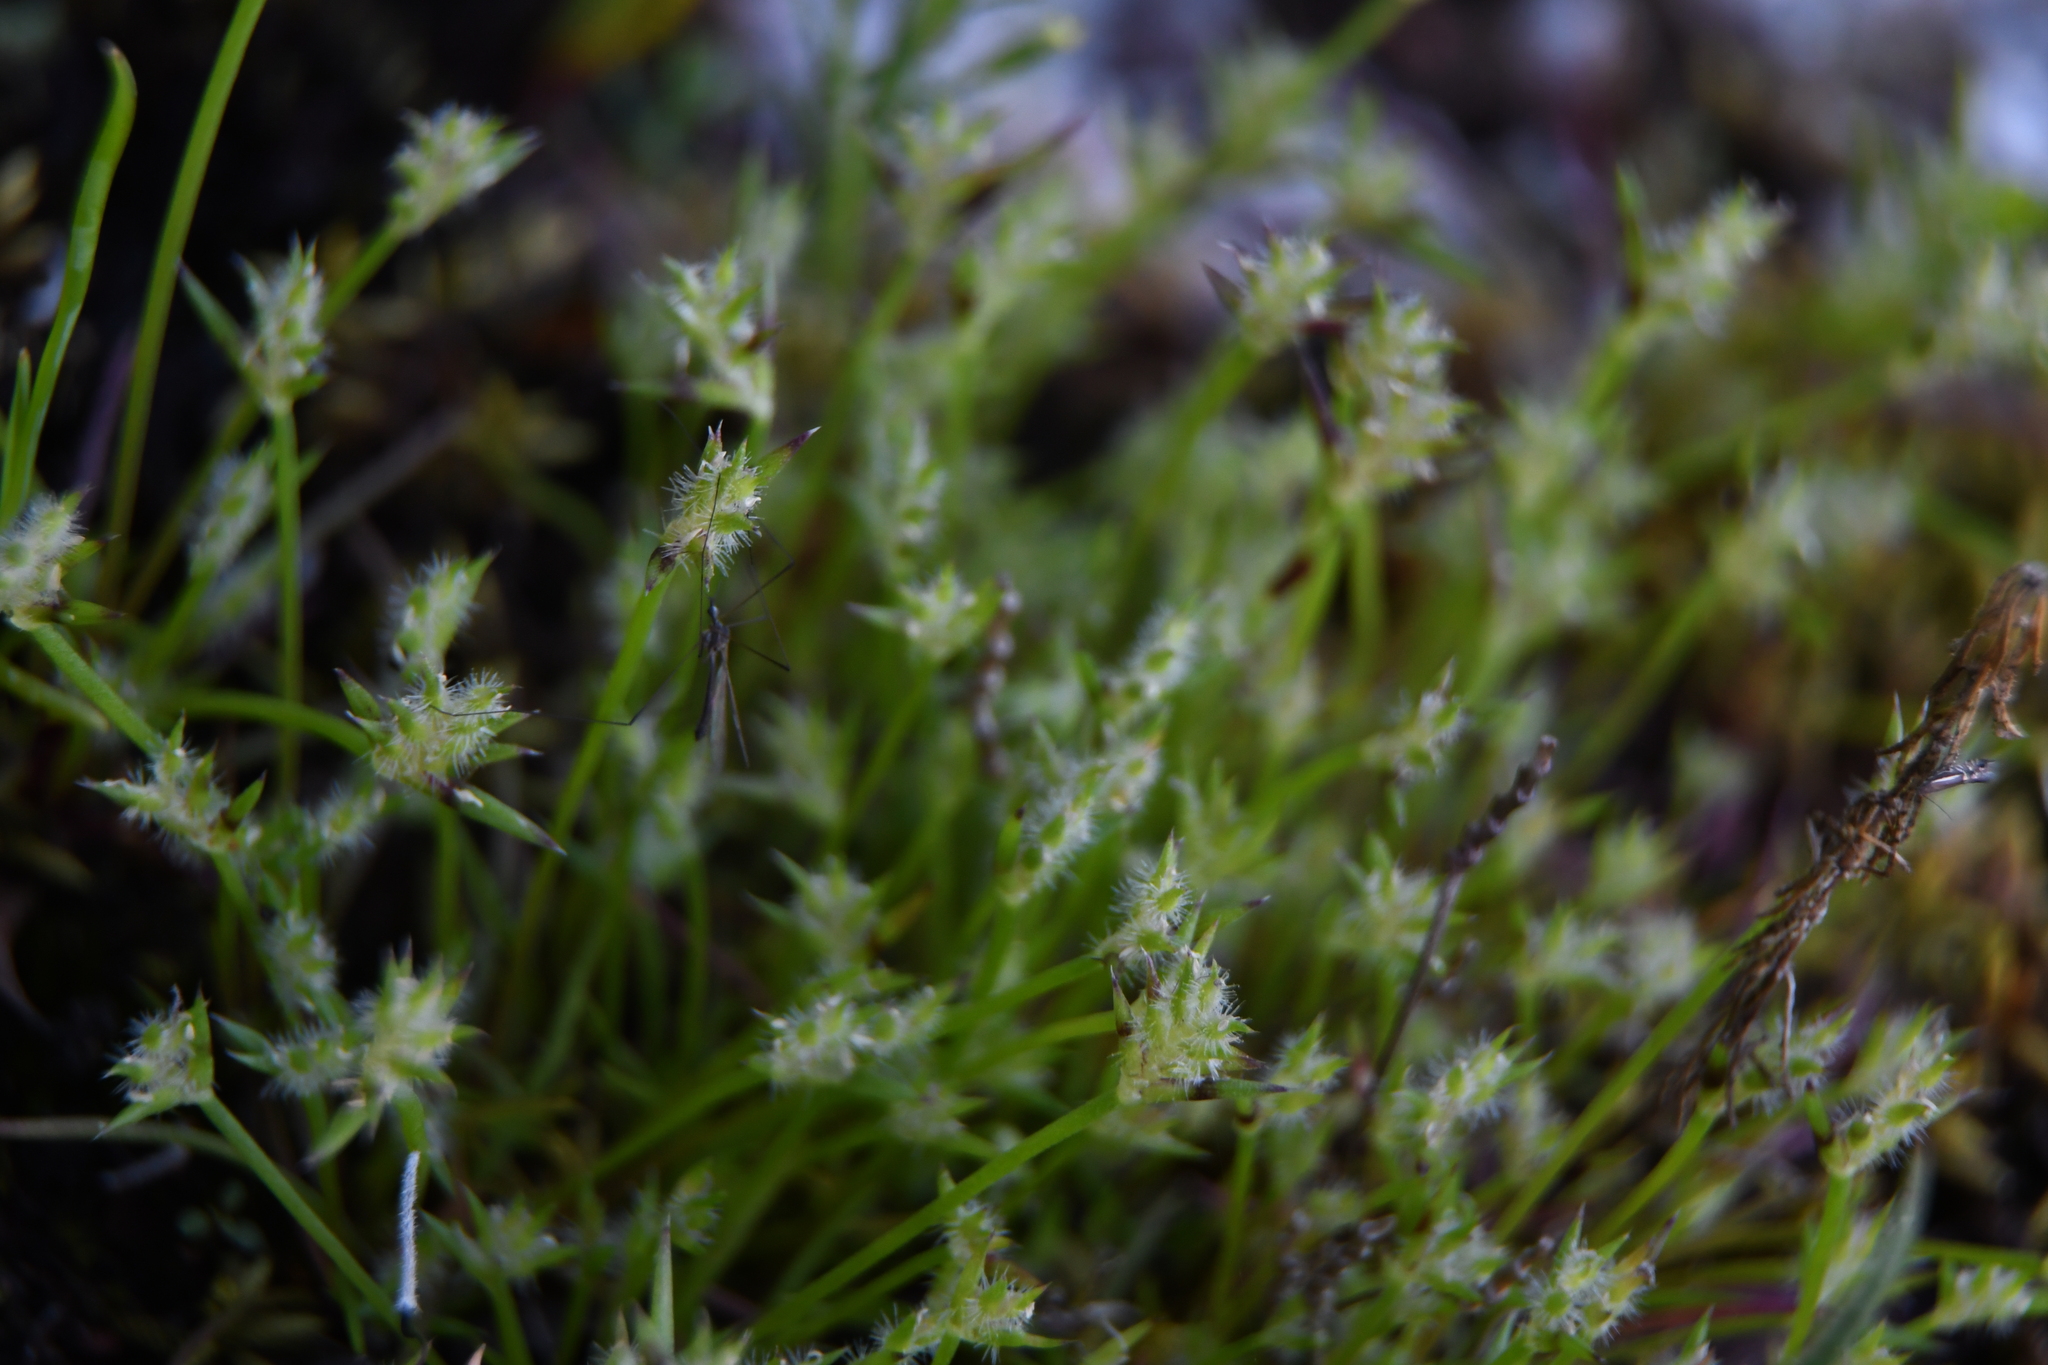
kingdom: Plantae
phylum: Tracheophyta
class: Liliopsida
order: Poales
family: Restionaceae
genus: Aphelia
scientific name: Aphelia cyperoides
